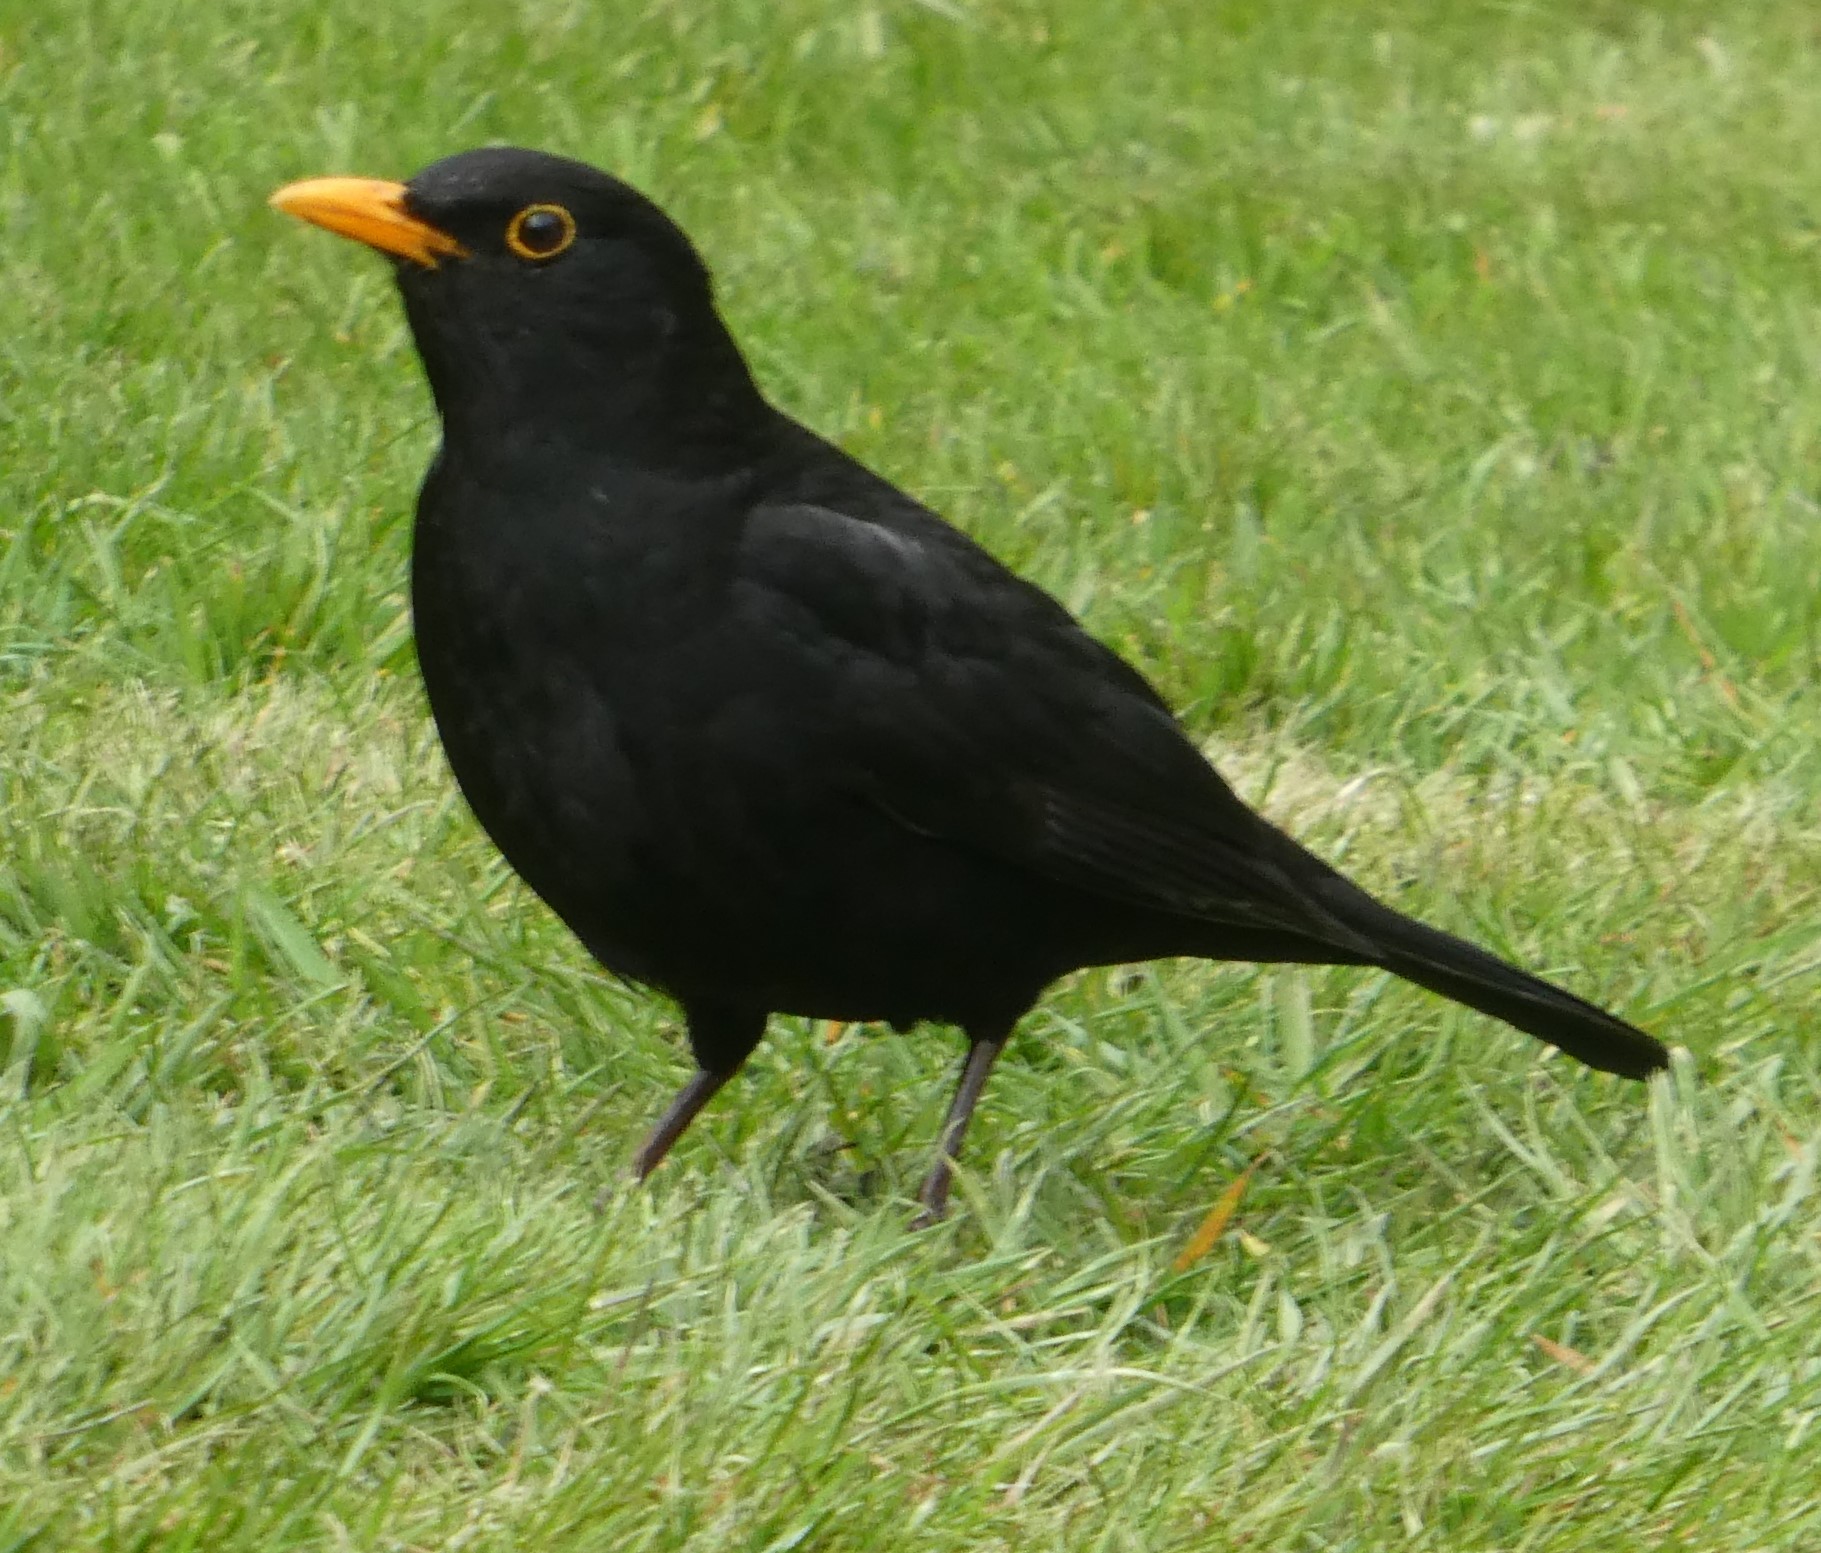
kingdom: Animalia
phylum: Chordata
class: Aves
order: Passeriformes
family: Turdidae
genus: Turdus
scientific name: Turdus merula
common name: Common blackbird
